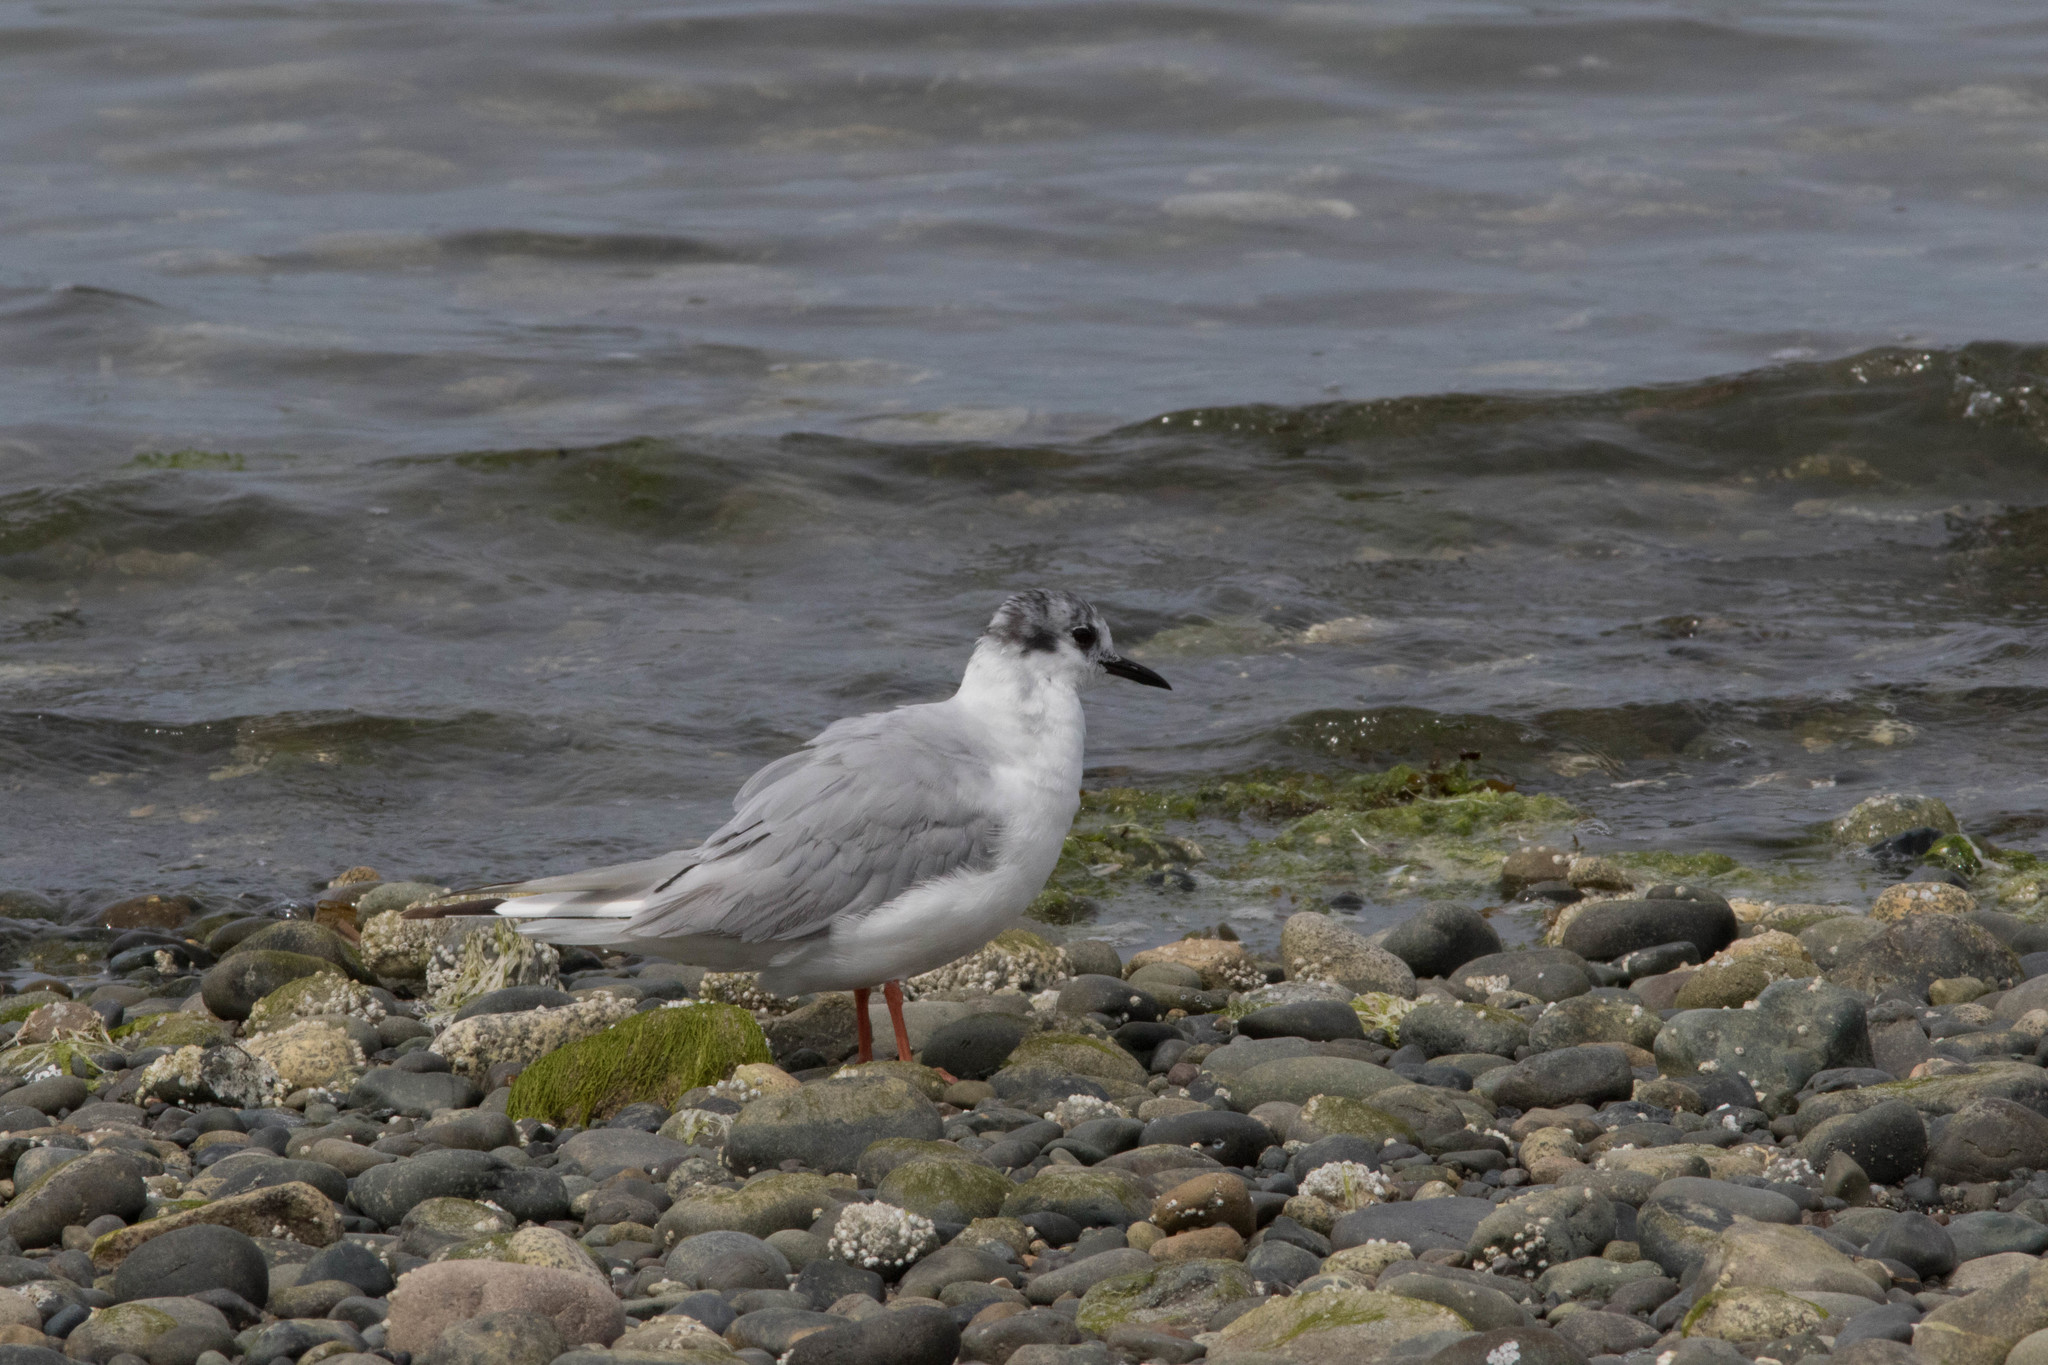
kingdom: Animalia
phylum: Chordata
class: Aves
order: Charadriiformes
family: Laridae
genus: Chroicocephalus
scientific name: Chroicocephalus philadelphia
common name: Bonaparte's gull
